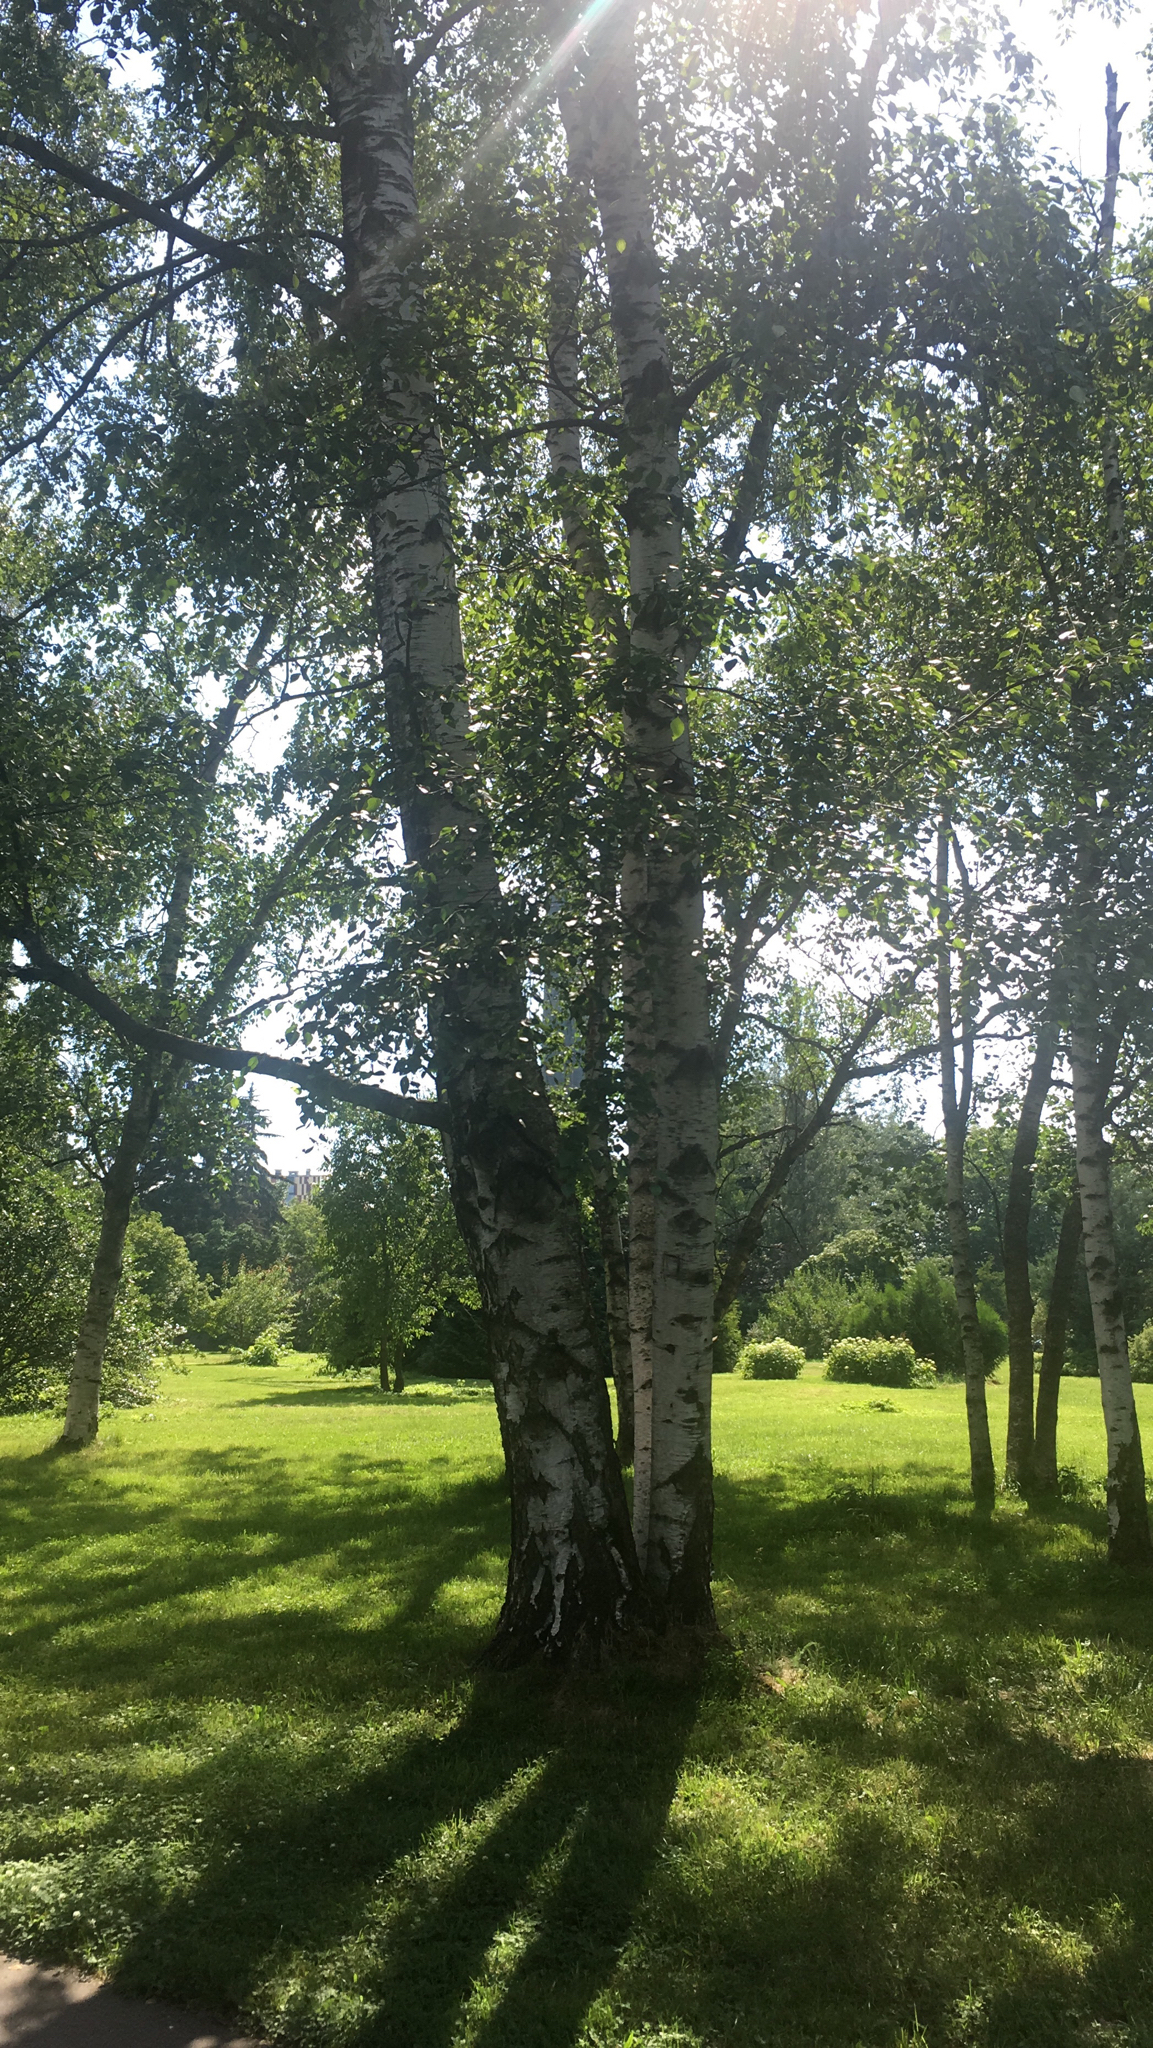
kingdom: Plantae
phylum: Tracheophyta
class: Magnoliopsida
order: Fagales
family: Betulaceae
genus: Betula
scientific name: Betula pendula
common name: Silver birch
